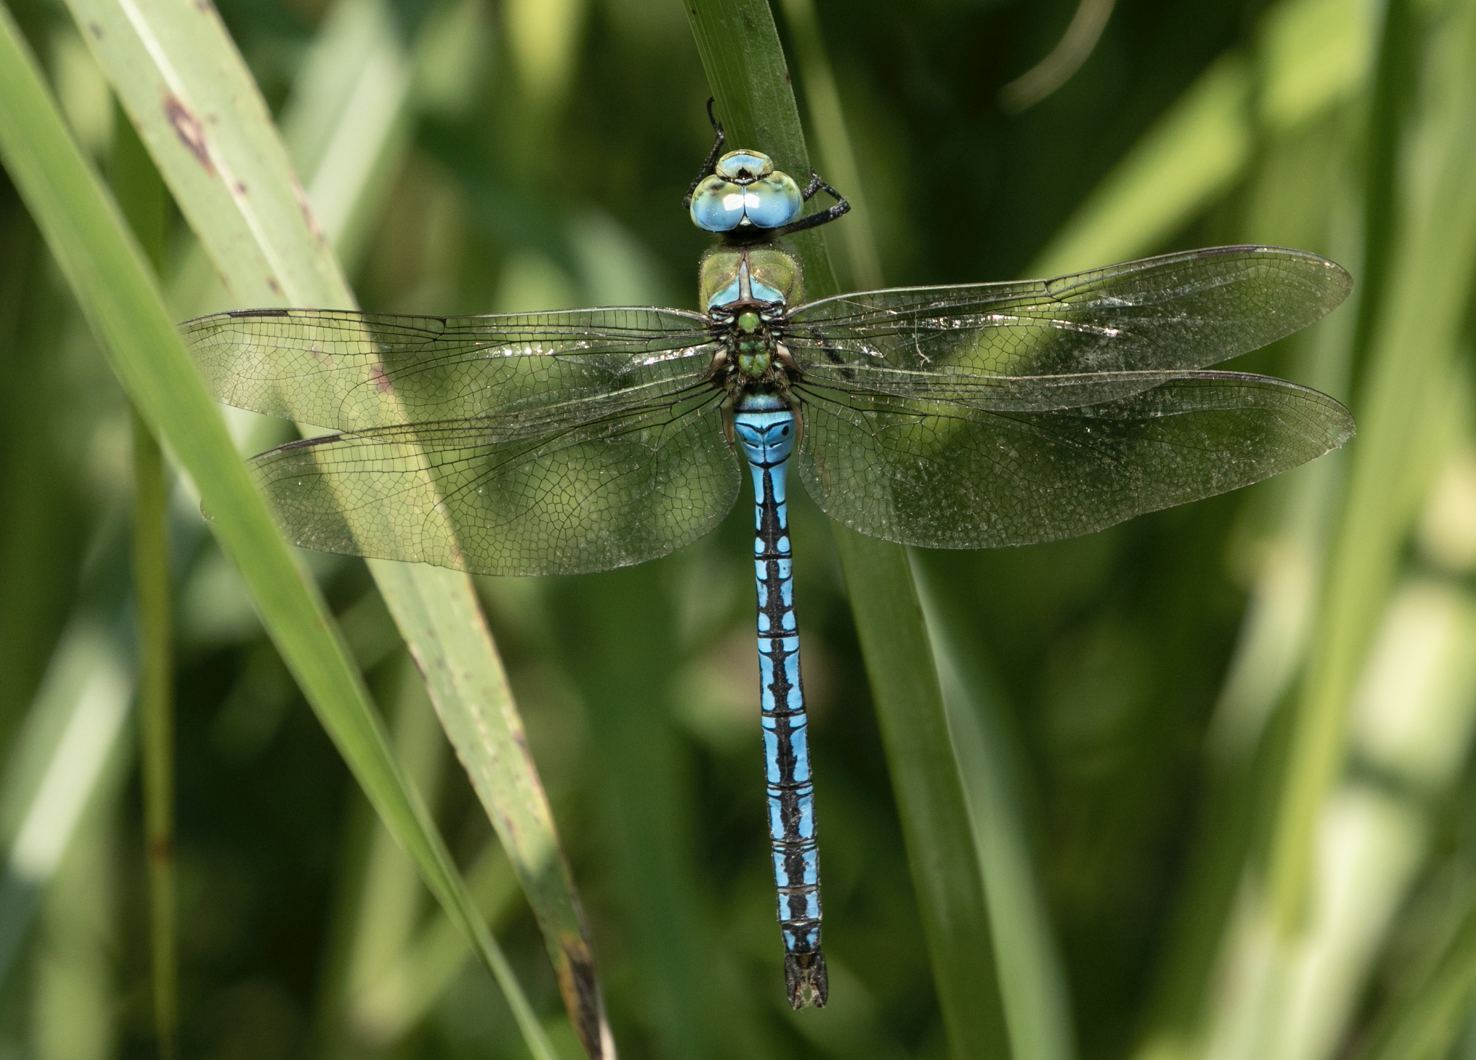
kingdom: Animalia
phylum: Arthropoda
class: Insecta
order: Odonata
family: Aeshnidae
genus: Anax
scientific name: Anax imperator
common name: Emperor dragonfly
